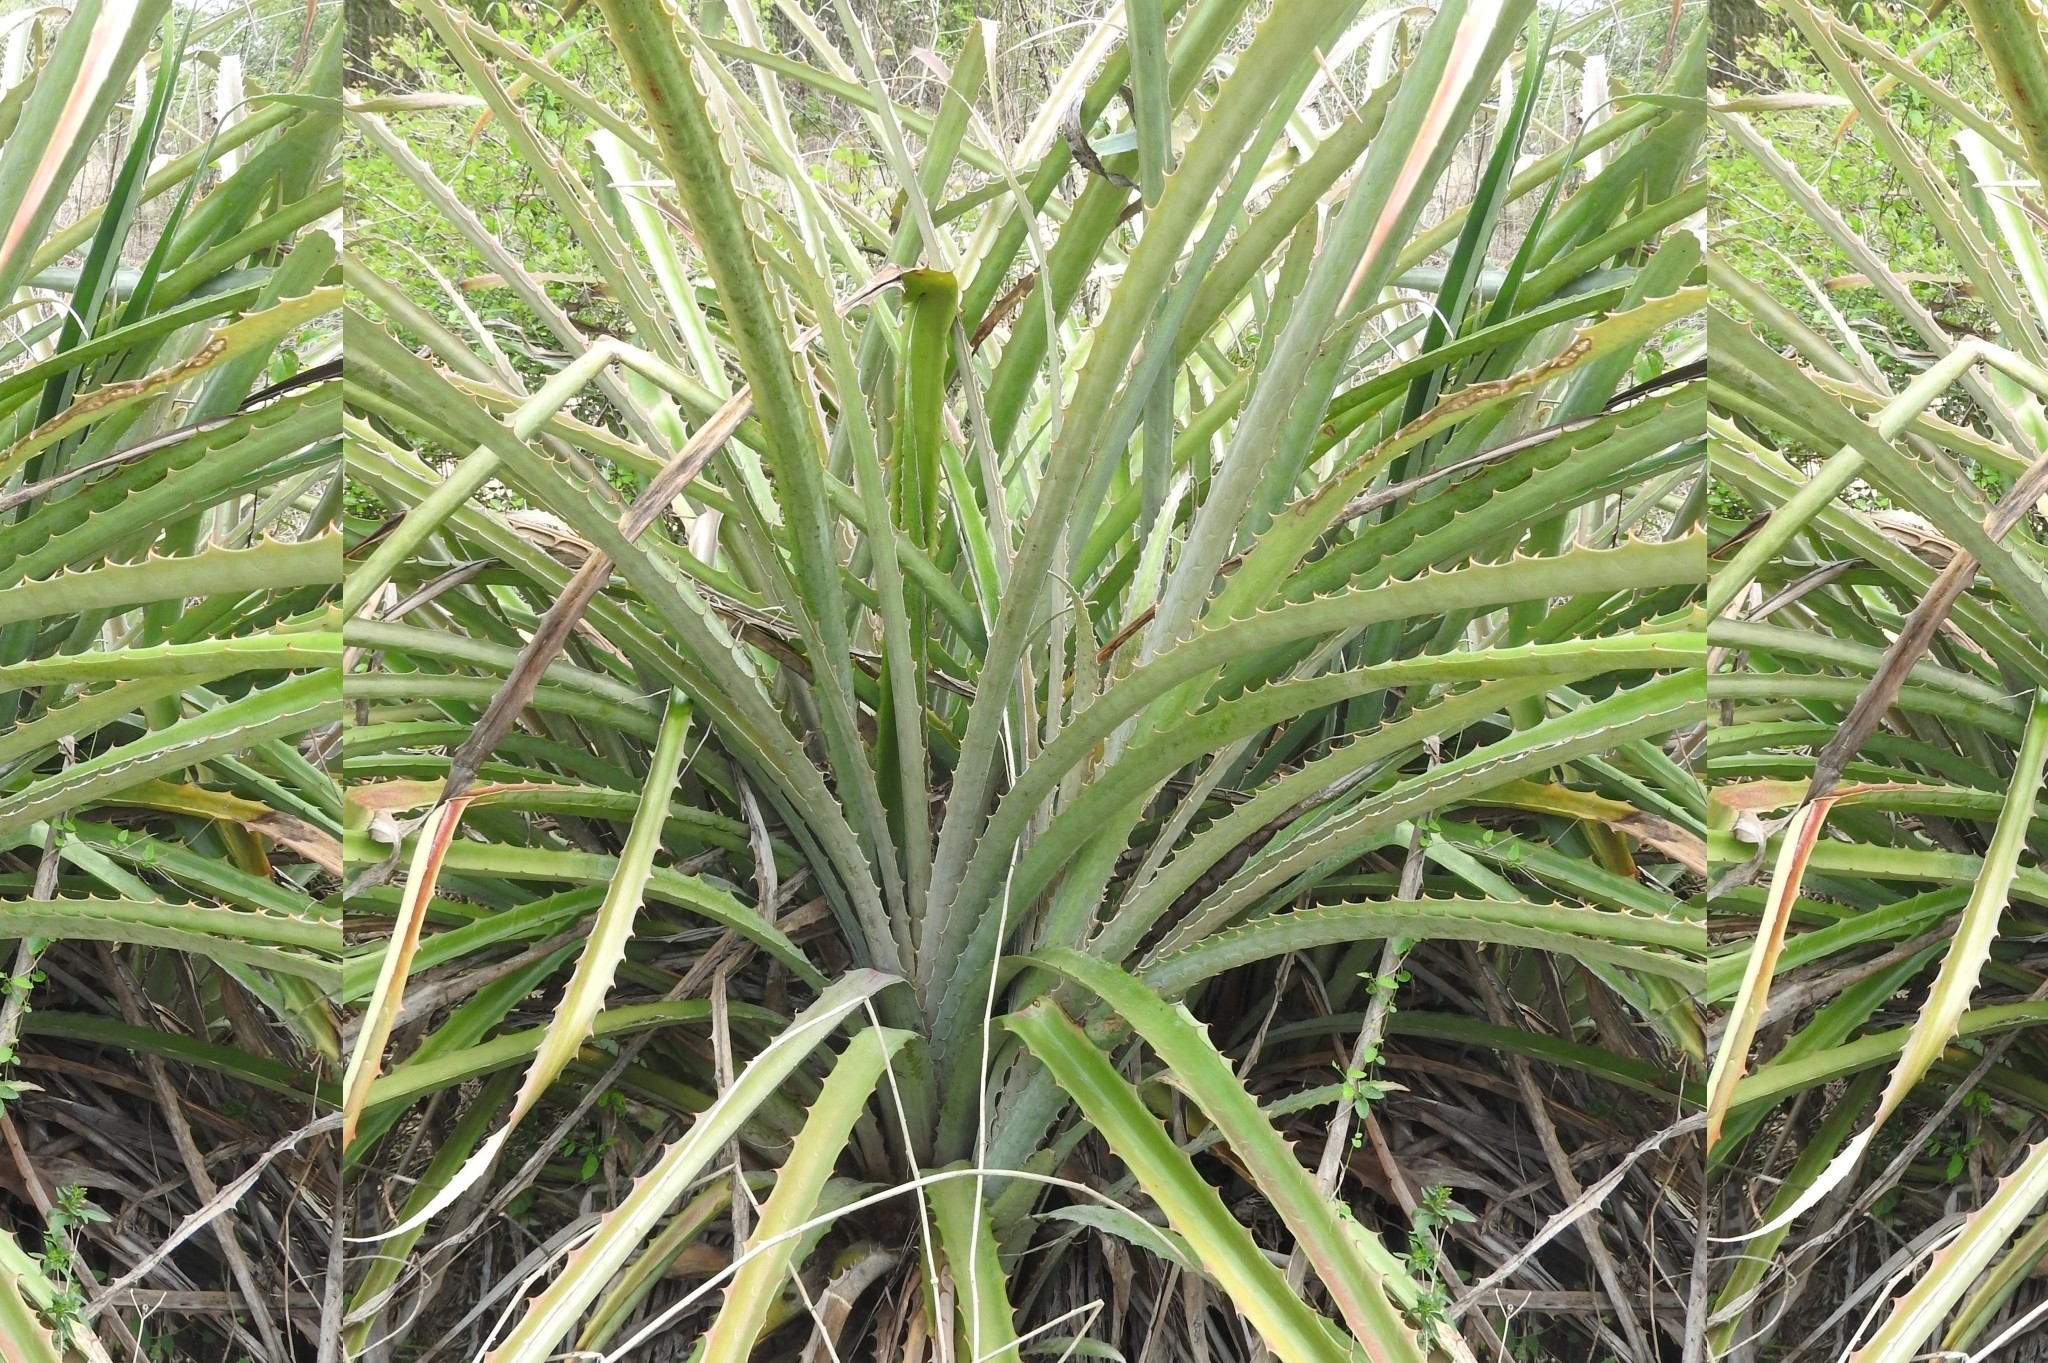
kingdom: Plantae
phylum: Tracheophyta
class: Liliopsida
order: Poales
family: Bromeliaceae
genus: Bromelia
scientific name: Bromelia pinguin
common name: Pinguin
